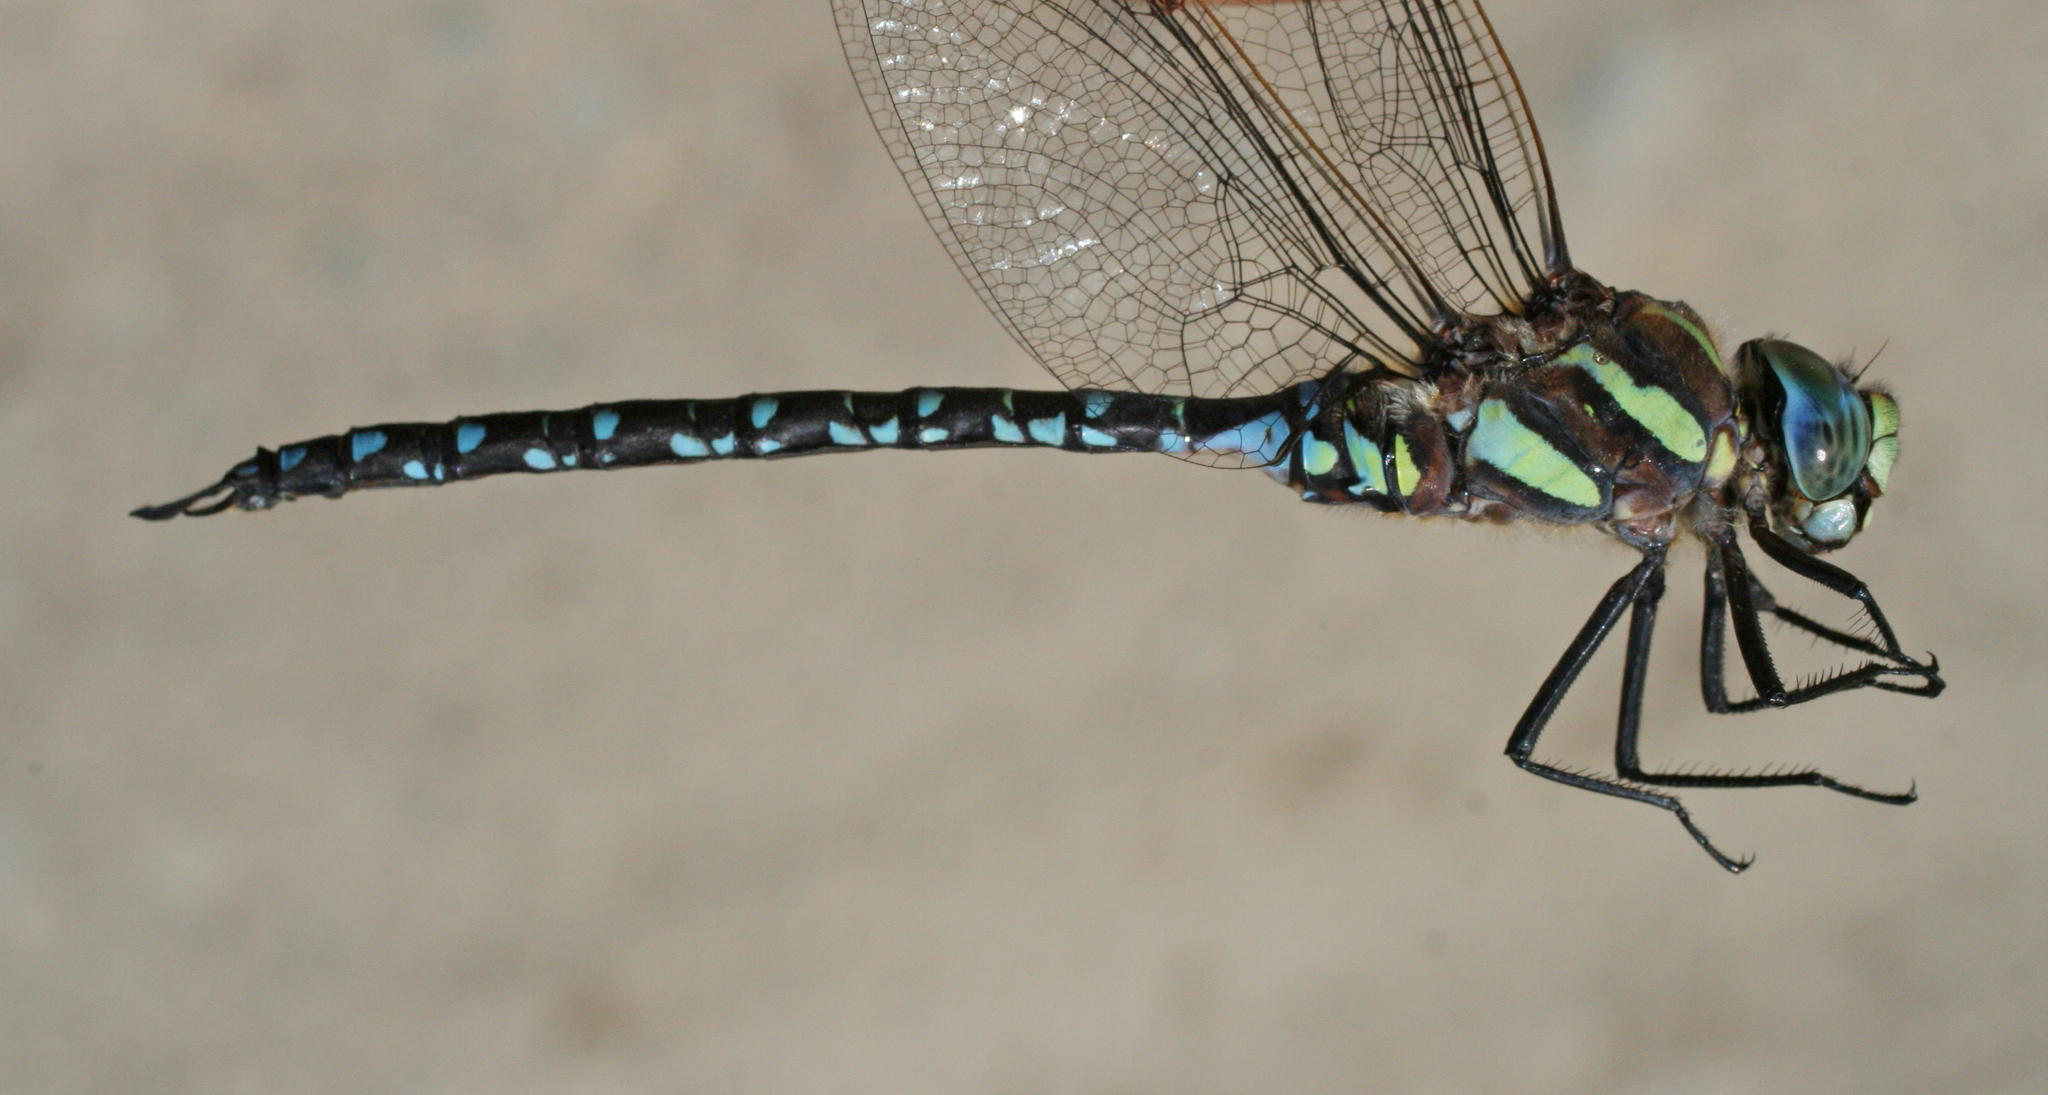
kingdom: Animalia
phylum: Arthropoda
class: Insecta
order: Odonata
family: Aeshnidae
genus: Aeshna
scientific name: Aeshna juncea
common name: Moorland hawker
